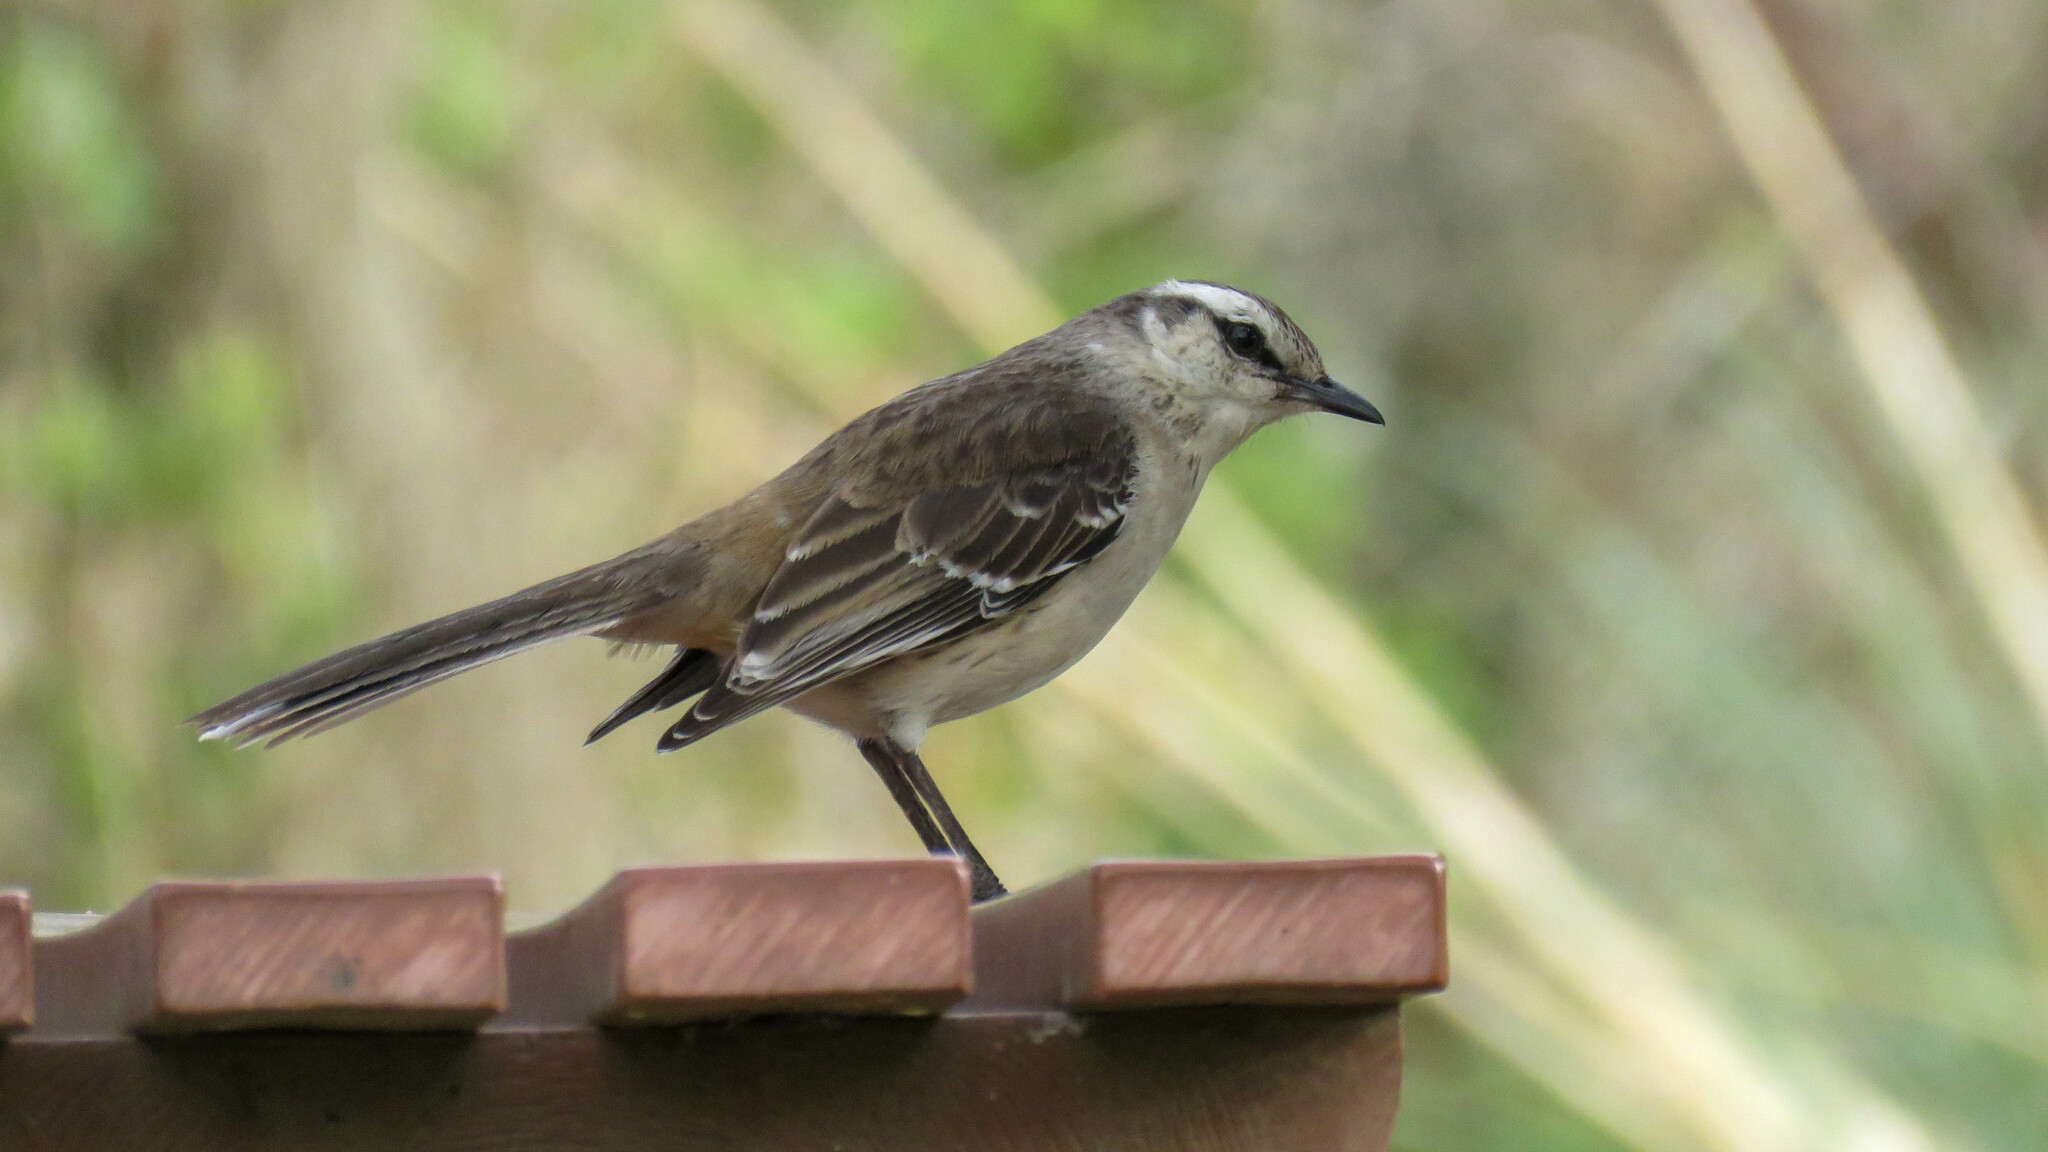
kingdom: Animalia
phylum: Chordata
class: Aves
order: Passeriformes
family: Mimidae
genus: Mimus
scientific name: Mimus saturninus
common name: Chalk-browed mockingbird
